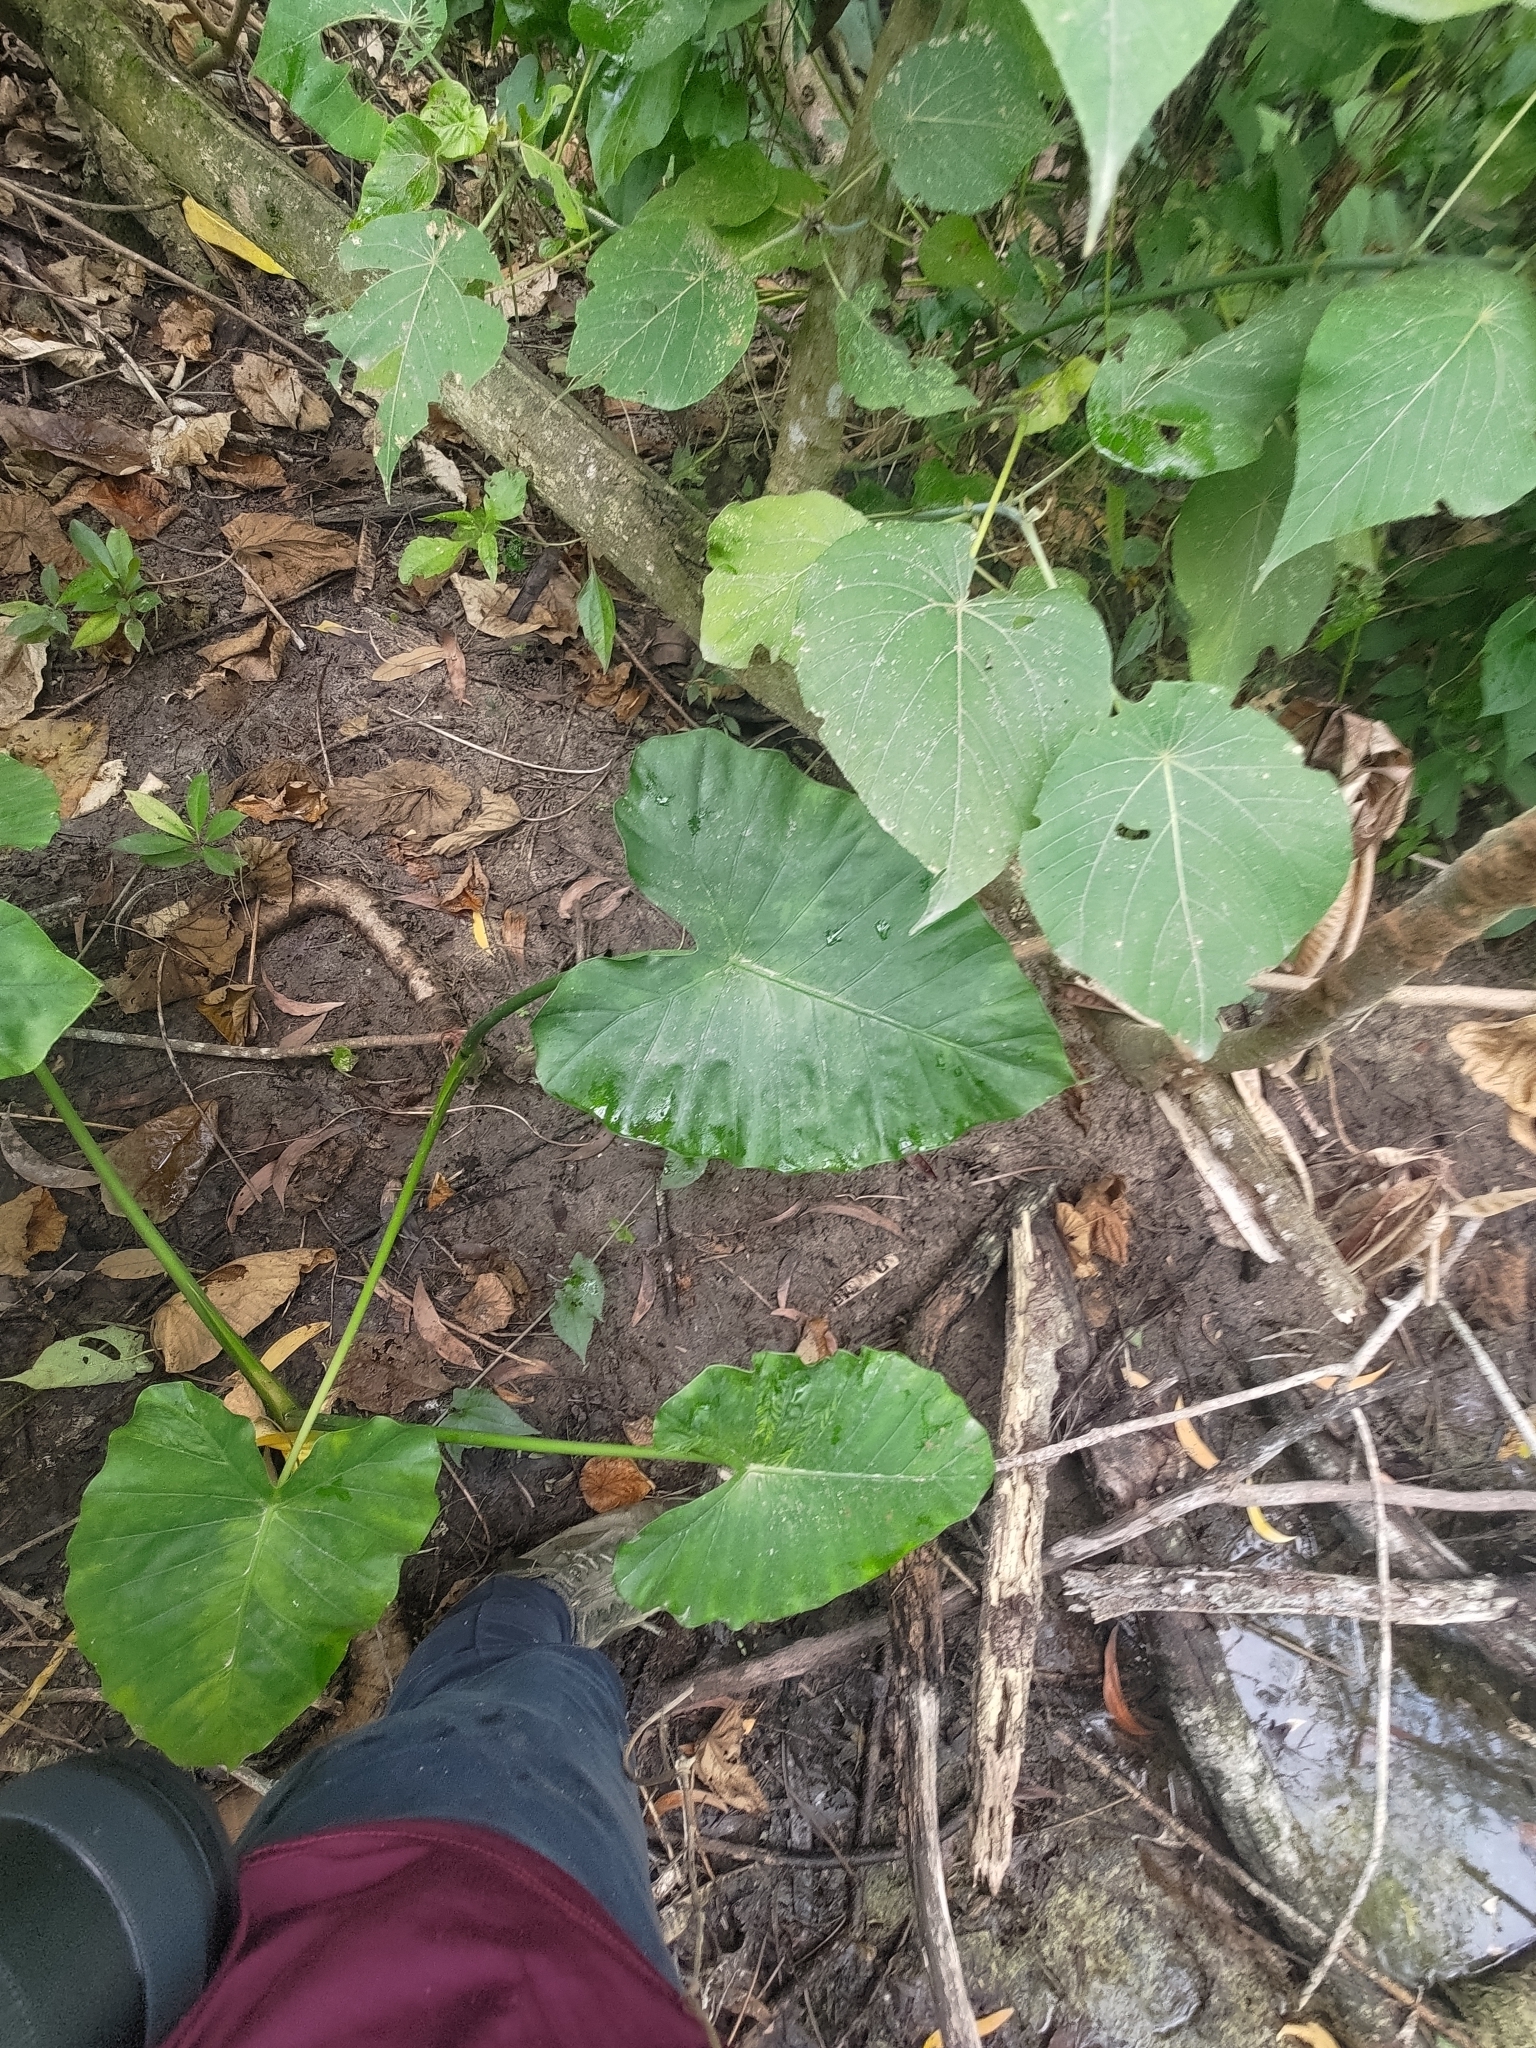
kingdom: Plantae
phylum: Tracheophyta
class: Liliopsida
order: Alismatales
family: Araceae
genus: Alocasia
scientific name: Alocasia odora
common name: Asian taro
